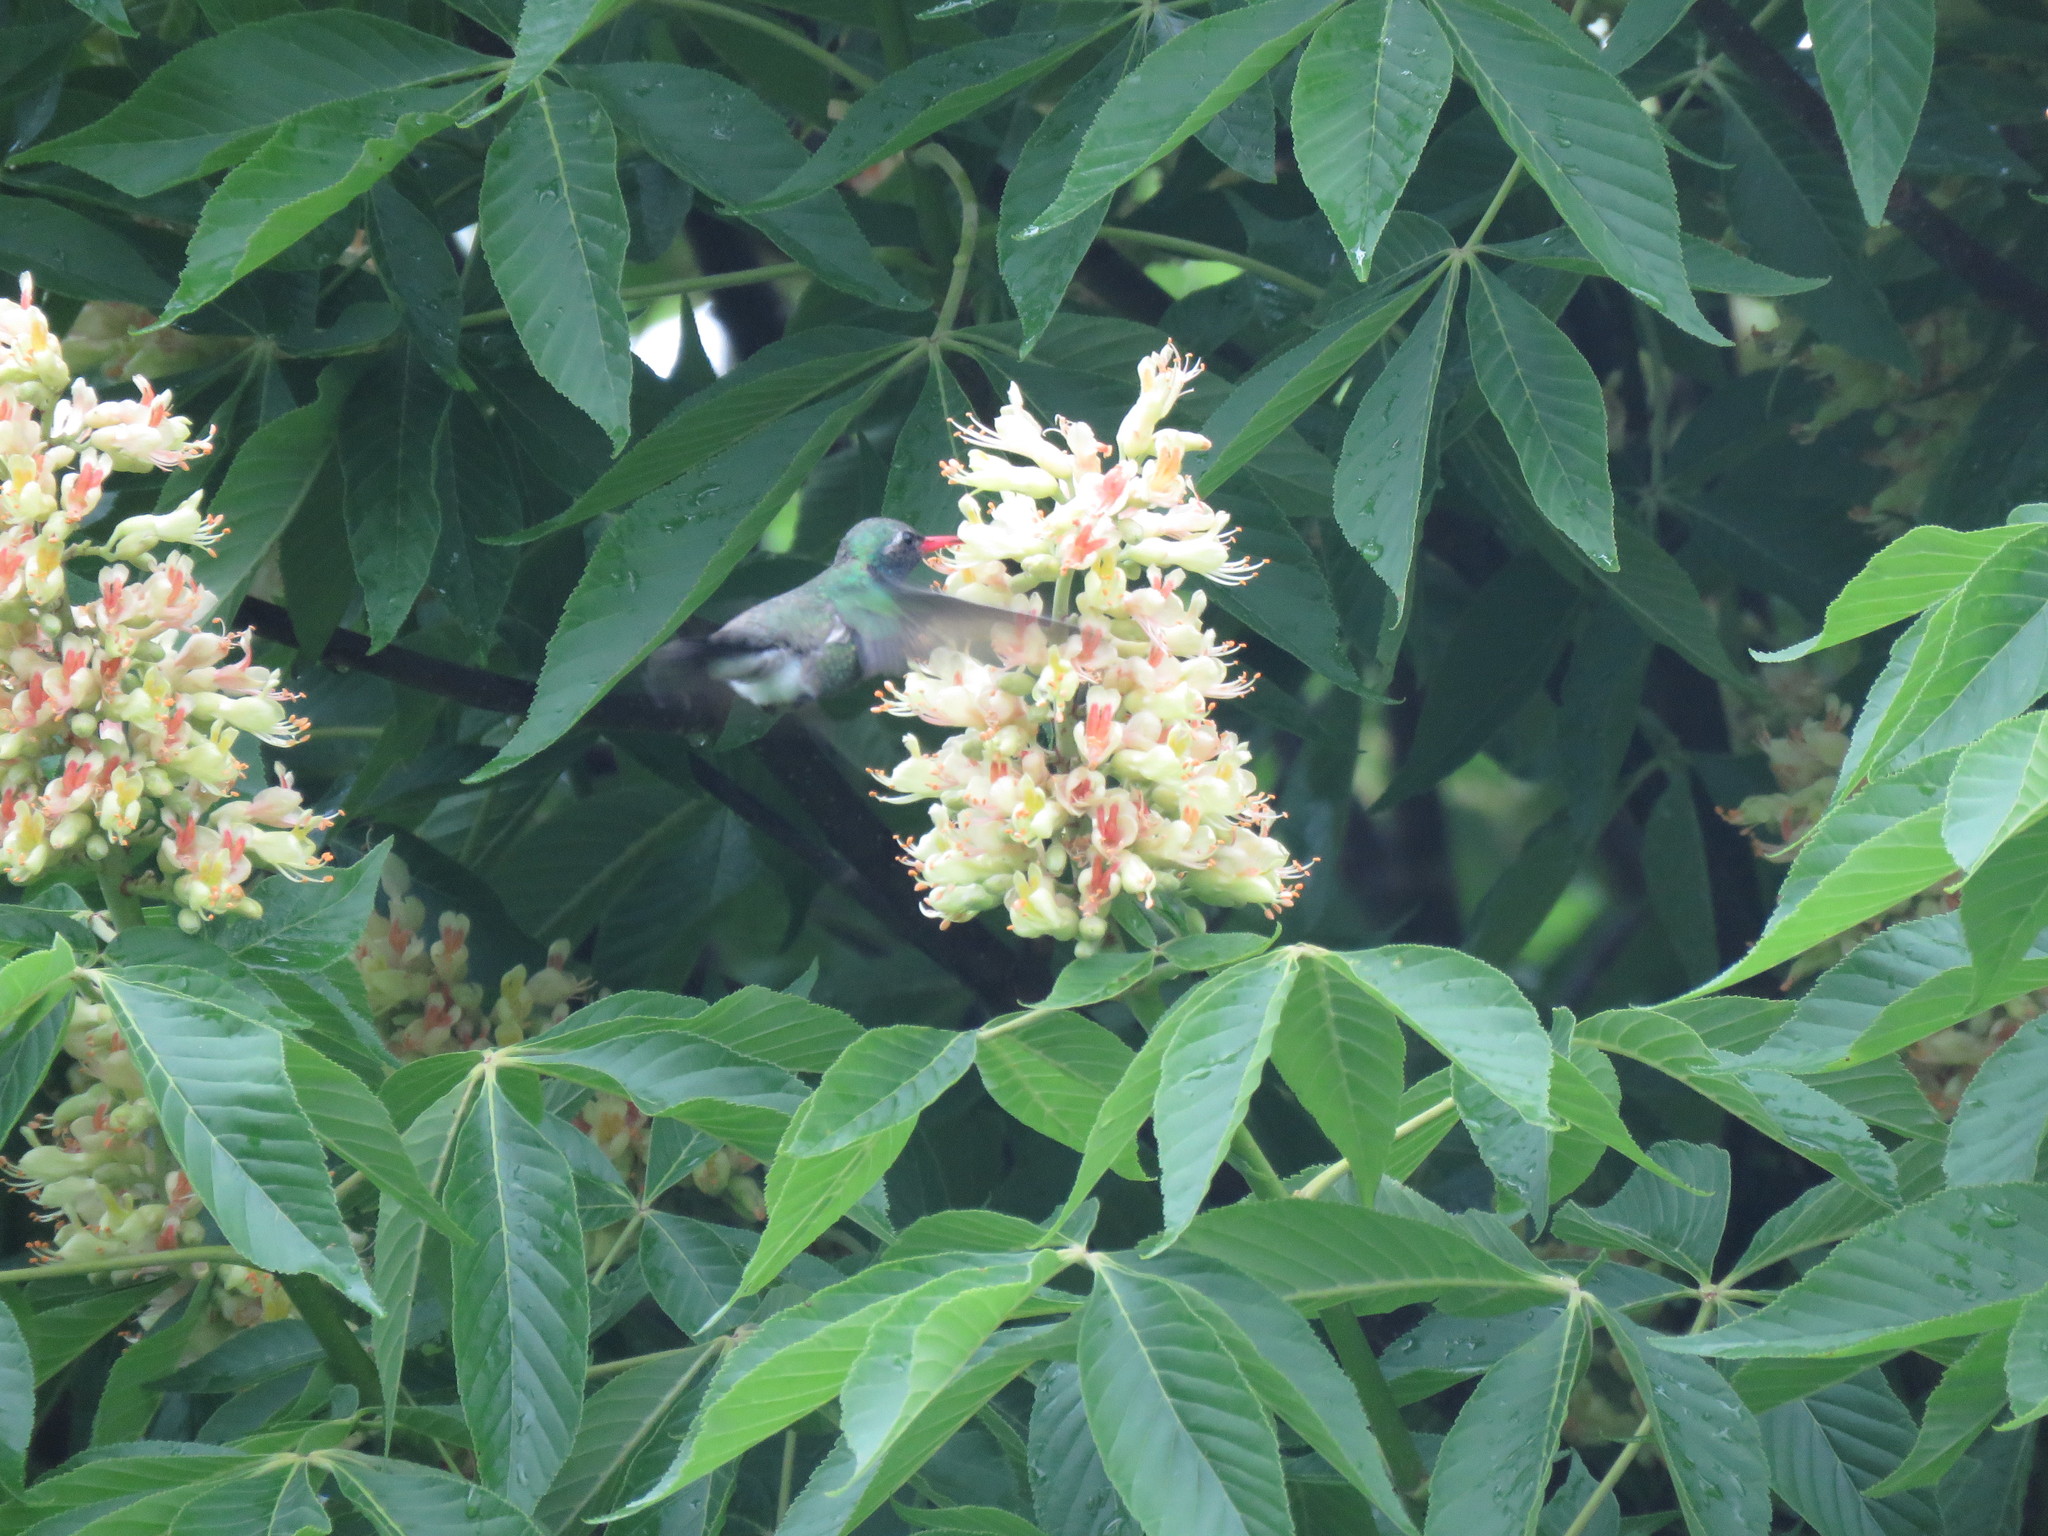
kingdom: Animalia
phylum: Chordata
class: Aves
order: Apodiformes
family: Trochilidae
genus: Cynanthus
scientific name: Cynanthus latirostris
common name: Broad-billed hummingbird
